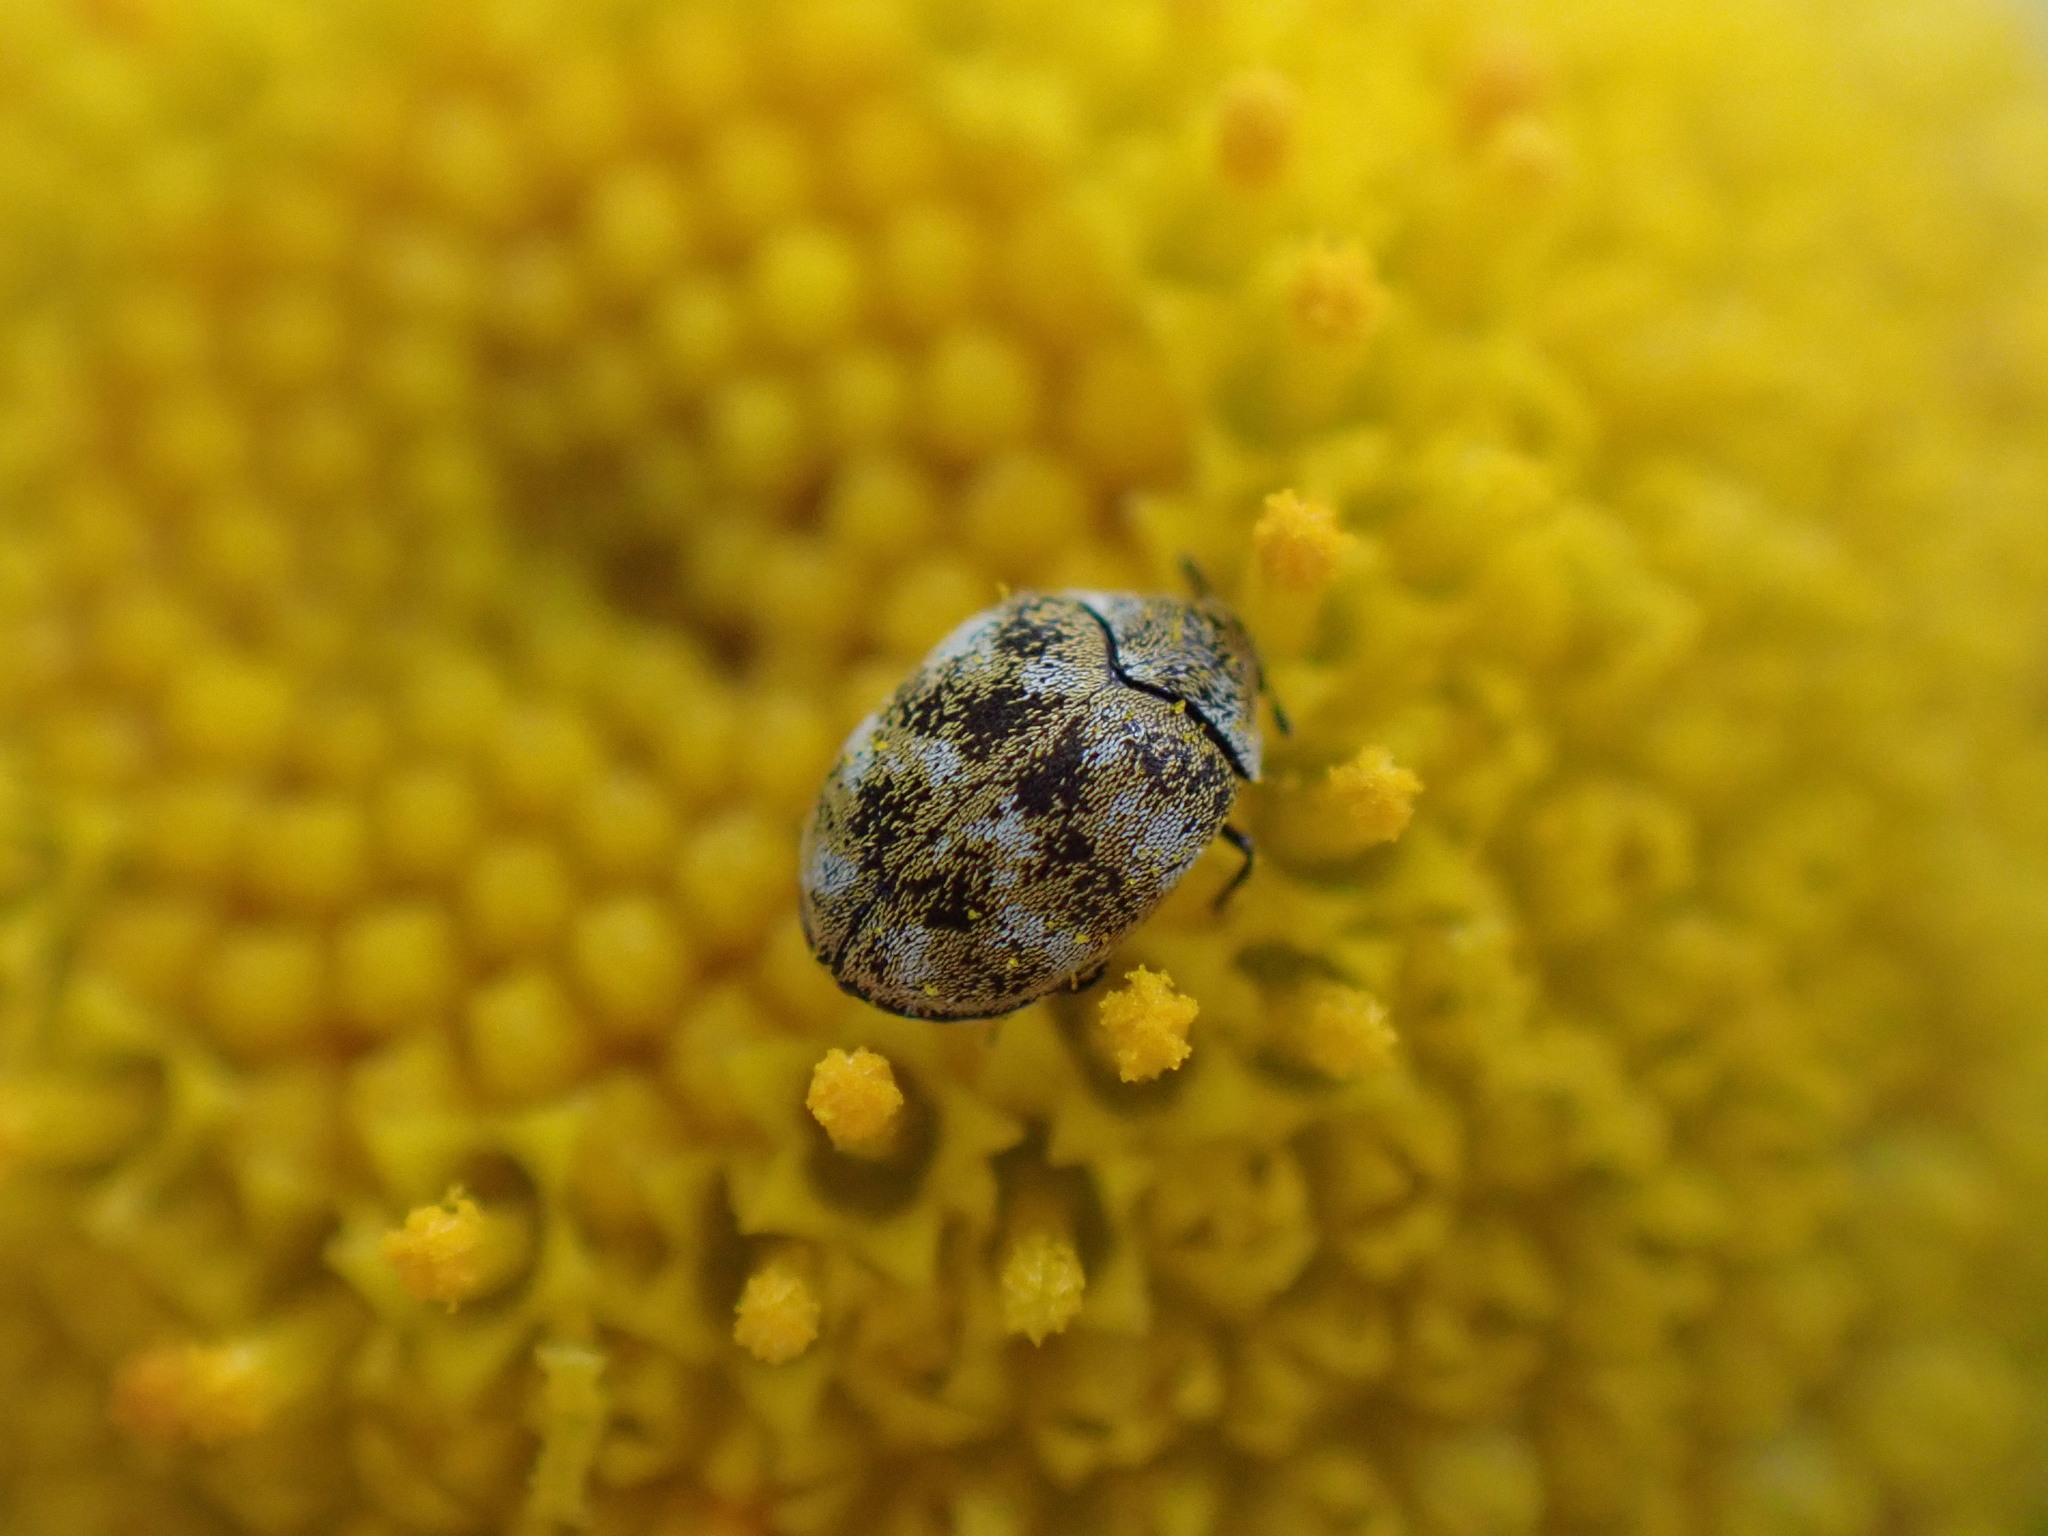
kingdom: Animalia
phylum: Arthropoda
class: Insecta
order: Coleoptera
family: Dermestidae
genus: Anthrenus
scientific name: Anthrenus verbasci
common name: Varied carpet beetle
